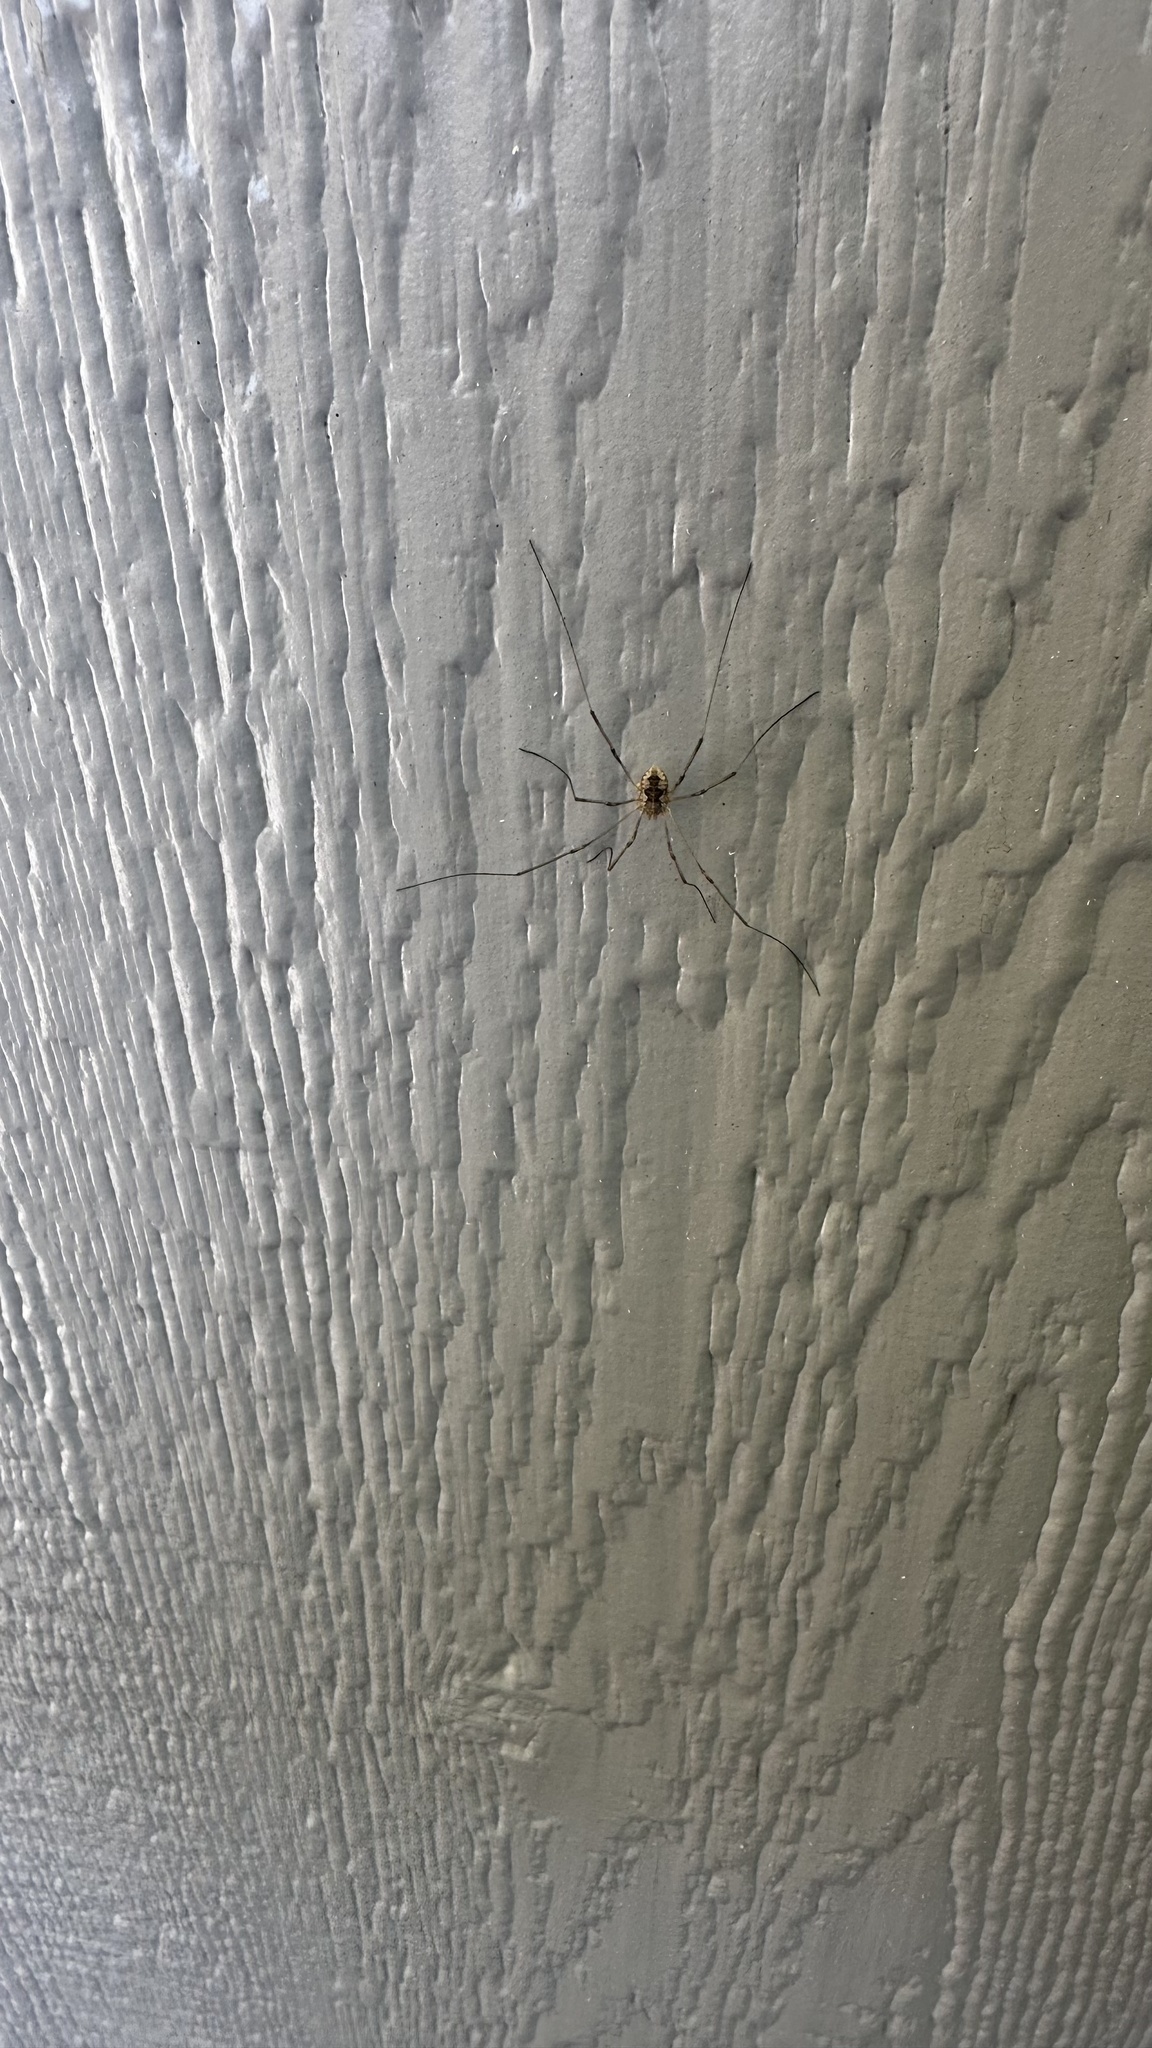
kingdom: Animalia
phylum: Arthropoda
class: Arachnida
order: Opiliones
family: Phalangiidae
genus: Phalangium
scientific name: Phalangium opilio
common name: Daddy longleg
